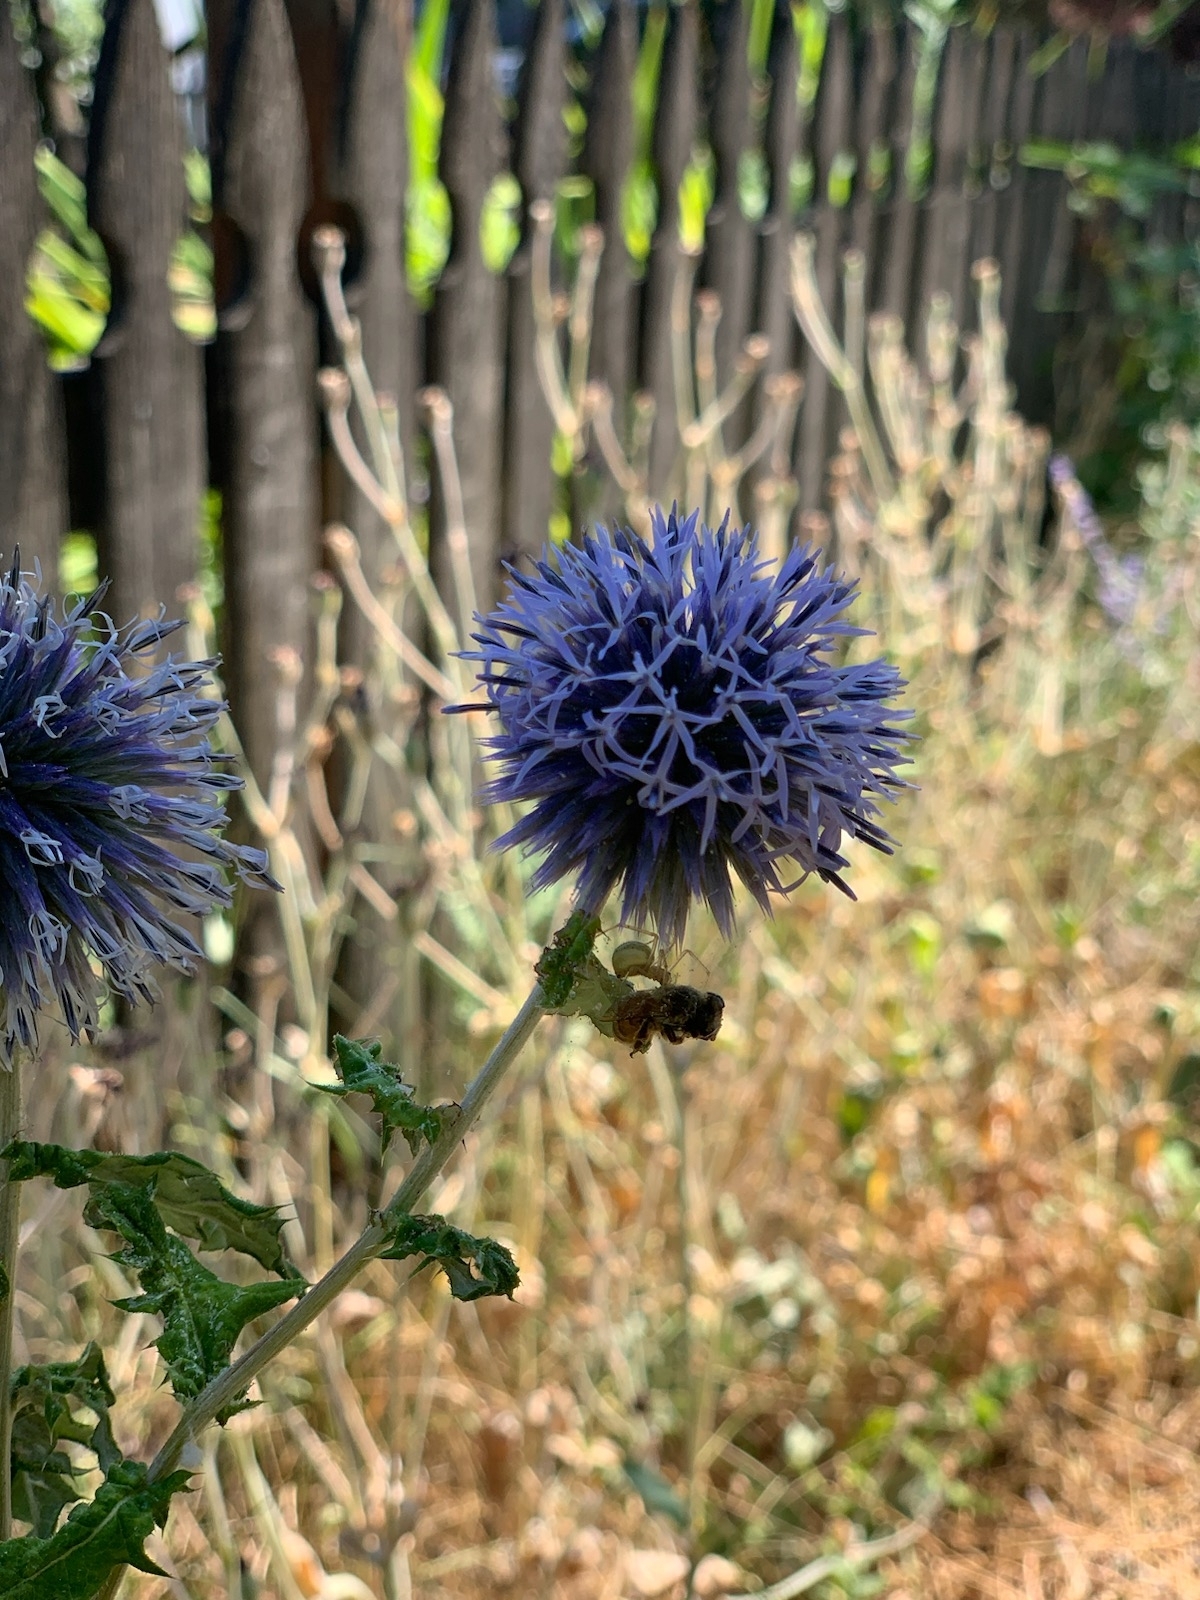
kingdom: Plantae
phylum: Tracheophyta
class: Magnoliopsida
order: Asterales
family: Asteraceae
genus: Echinops
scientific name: Echinops bannaticus
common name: Blue globe-thistle
